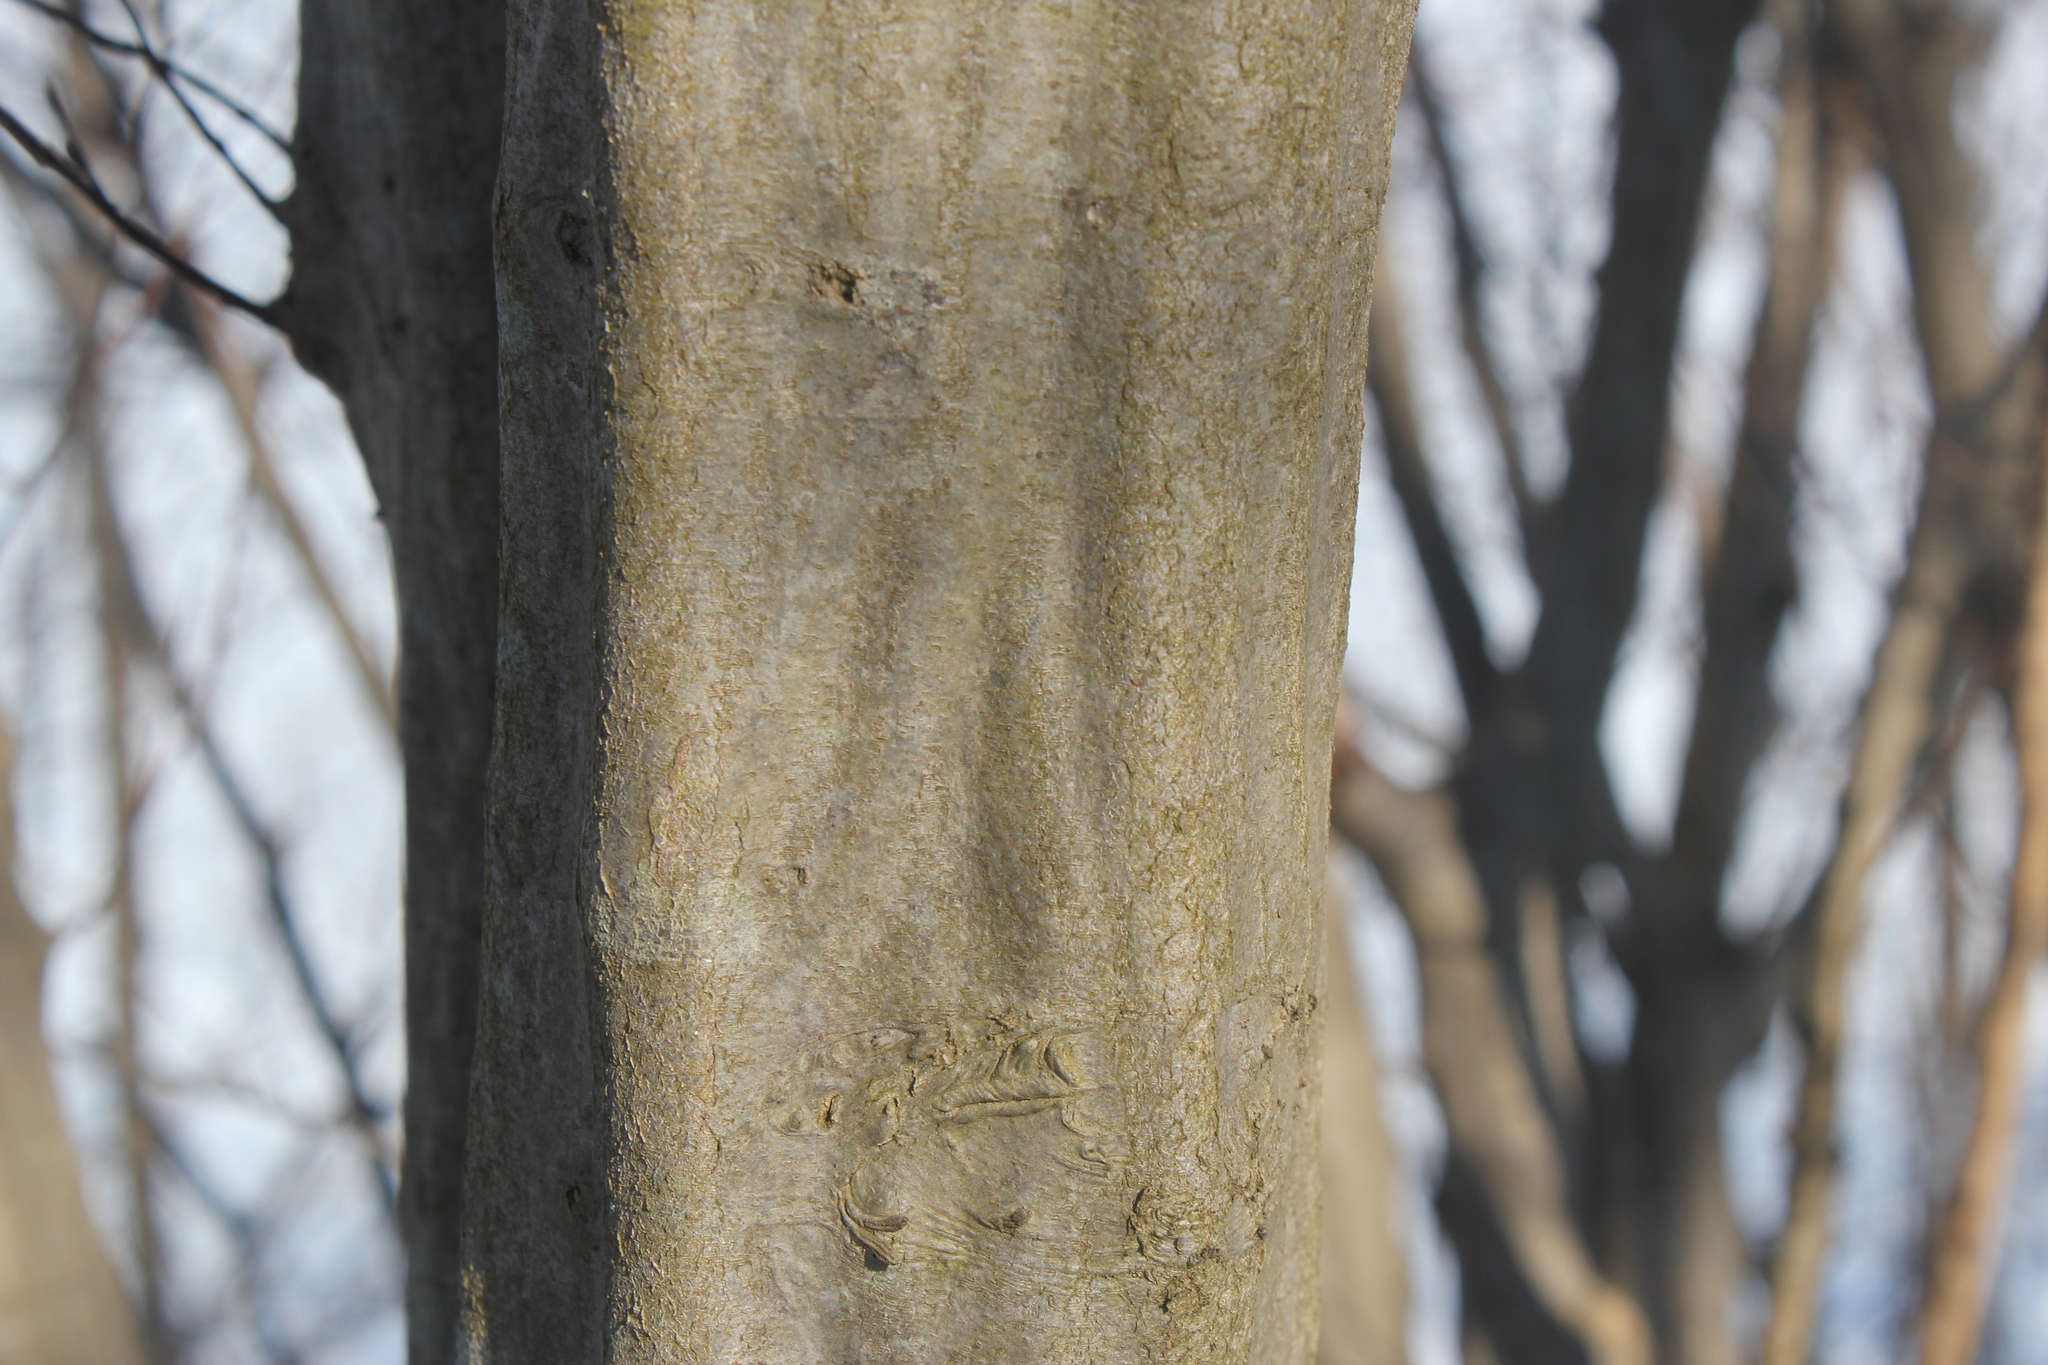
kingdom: Plantae
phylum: Tracheophyta
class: Magnoliopsida
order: Fagales
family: Betulaceae
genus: Carpinus
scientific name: Carpinus caroliniana
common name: American hornbeam
